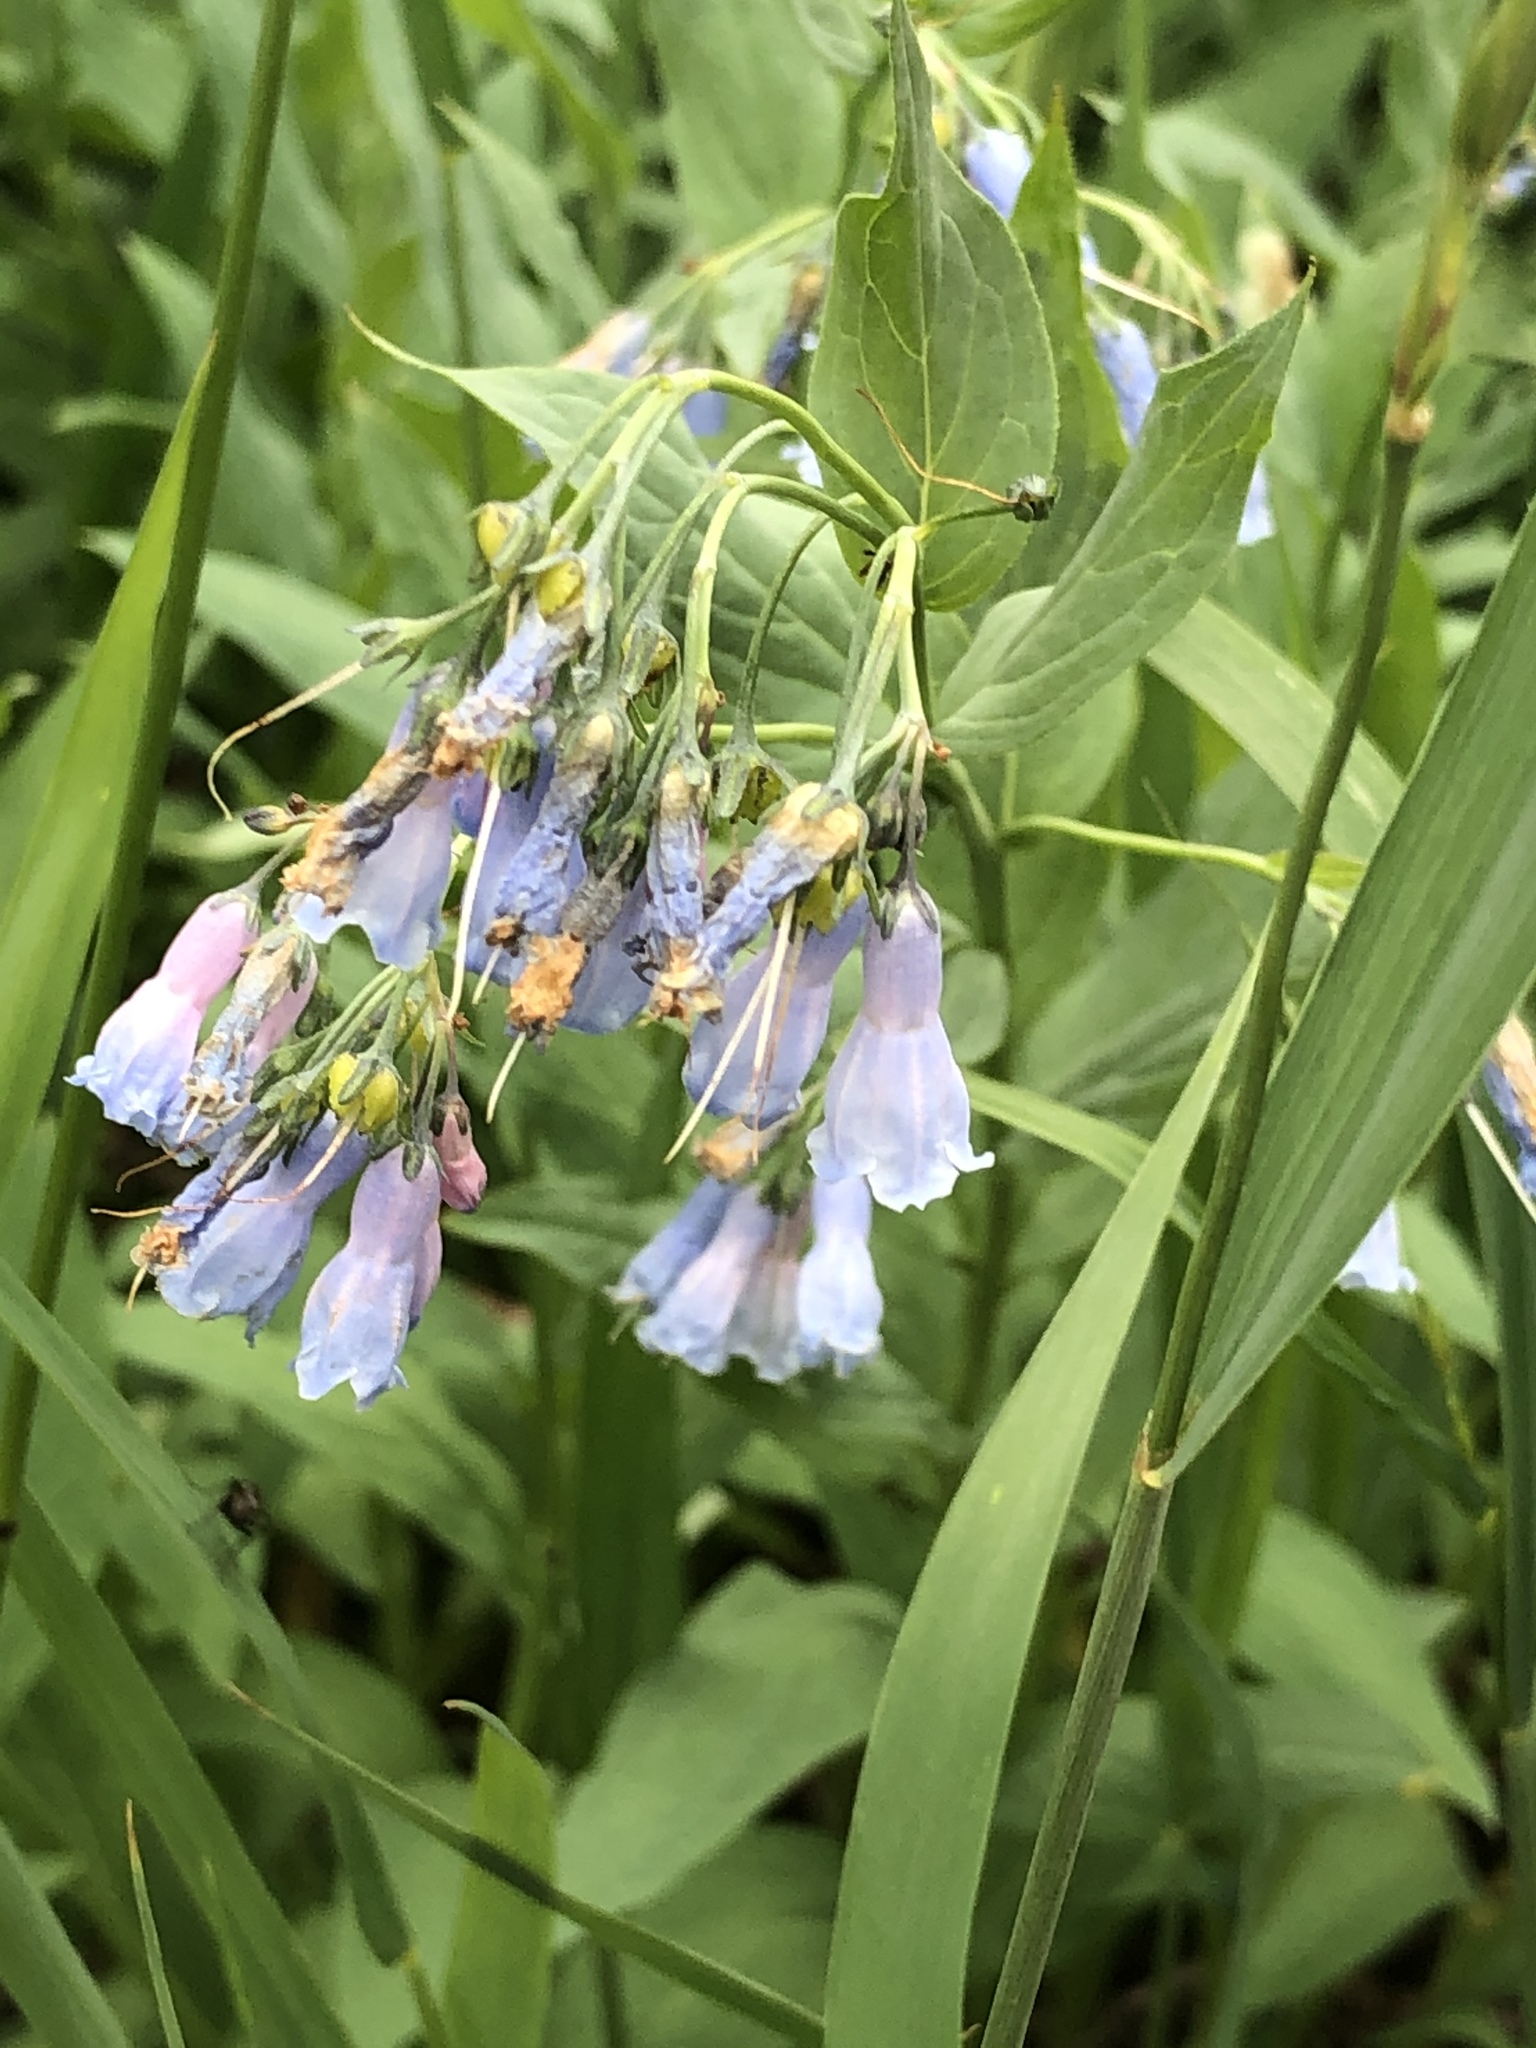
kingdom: Plantae
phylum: Tracheophyta
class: Magnoliopsida
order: Boraginales
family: Boraginaceae
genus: Mertensia
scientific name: Mertensia ciliata
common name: Tall chiming-bells
